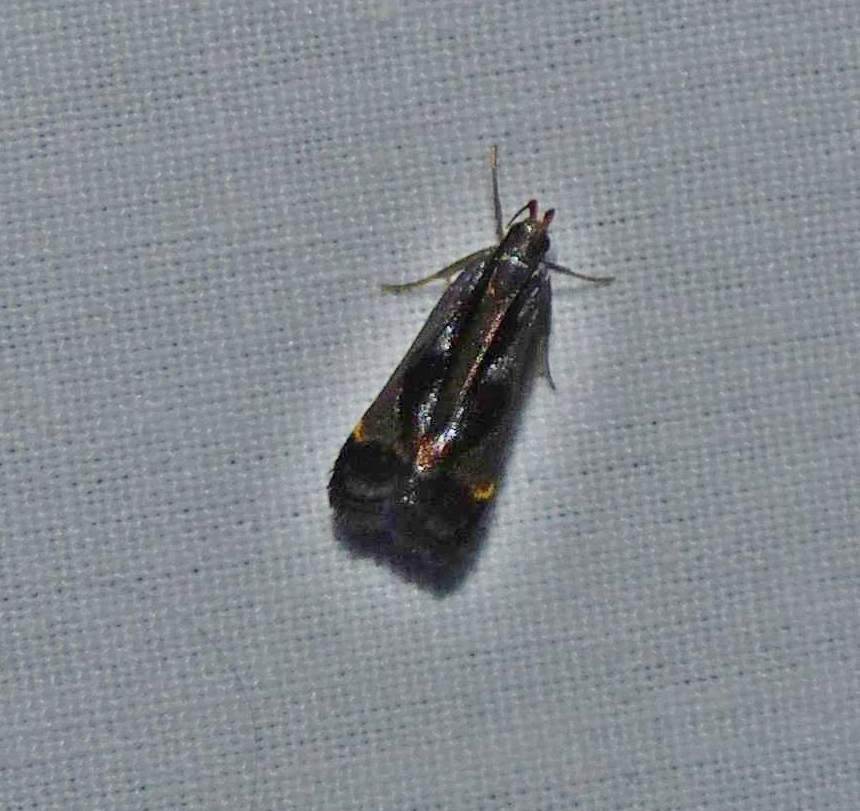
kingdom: Animalia
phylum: Arthropoda
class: Insecta
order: Lepidoptera
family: Gelechiidae
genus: Dichomeris
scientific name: Dichomeris ochripalpella
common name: Shining dichomeris moth
